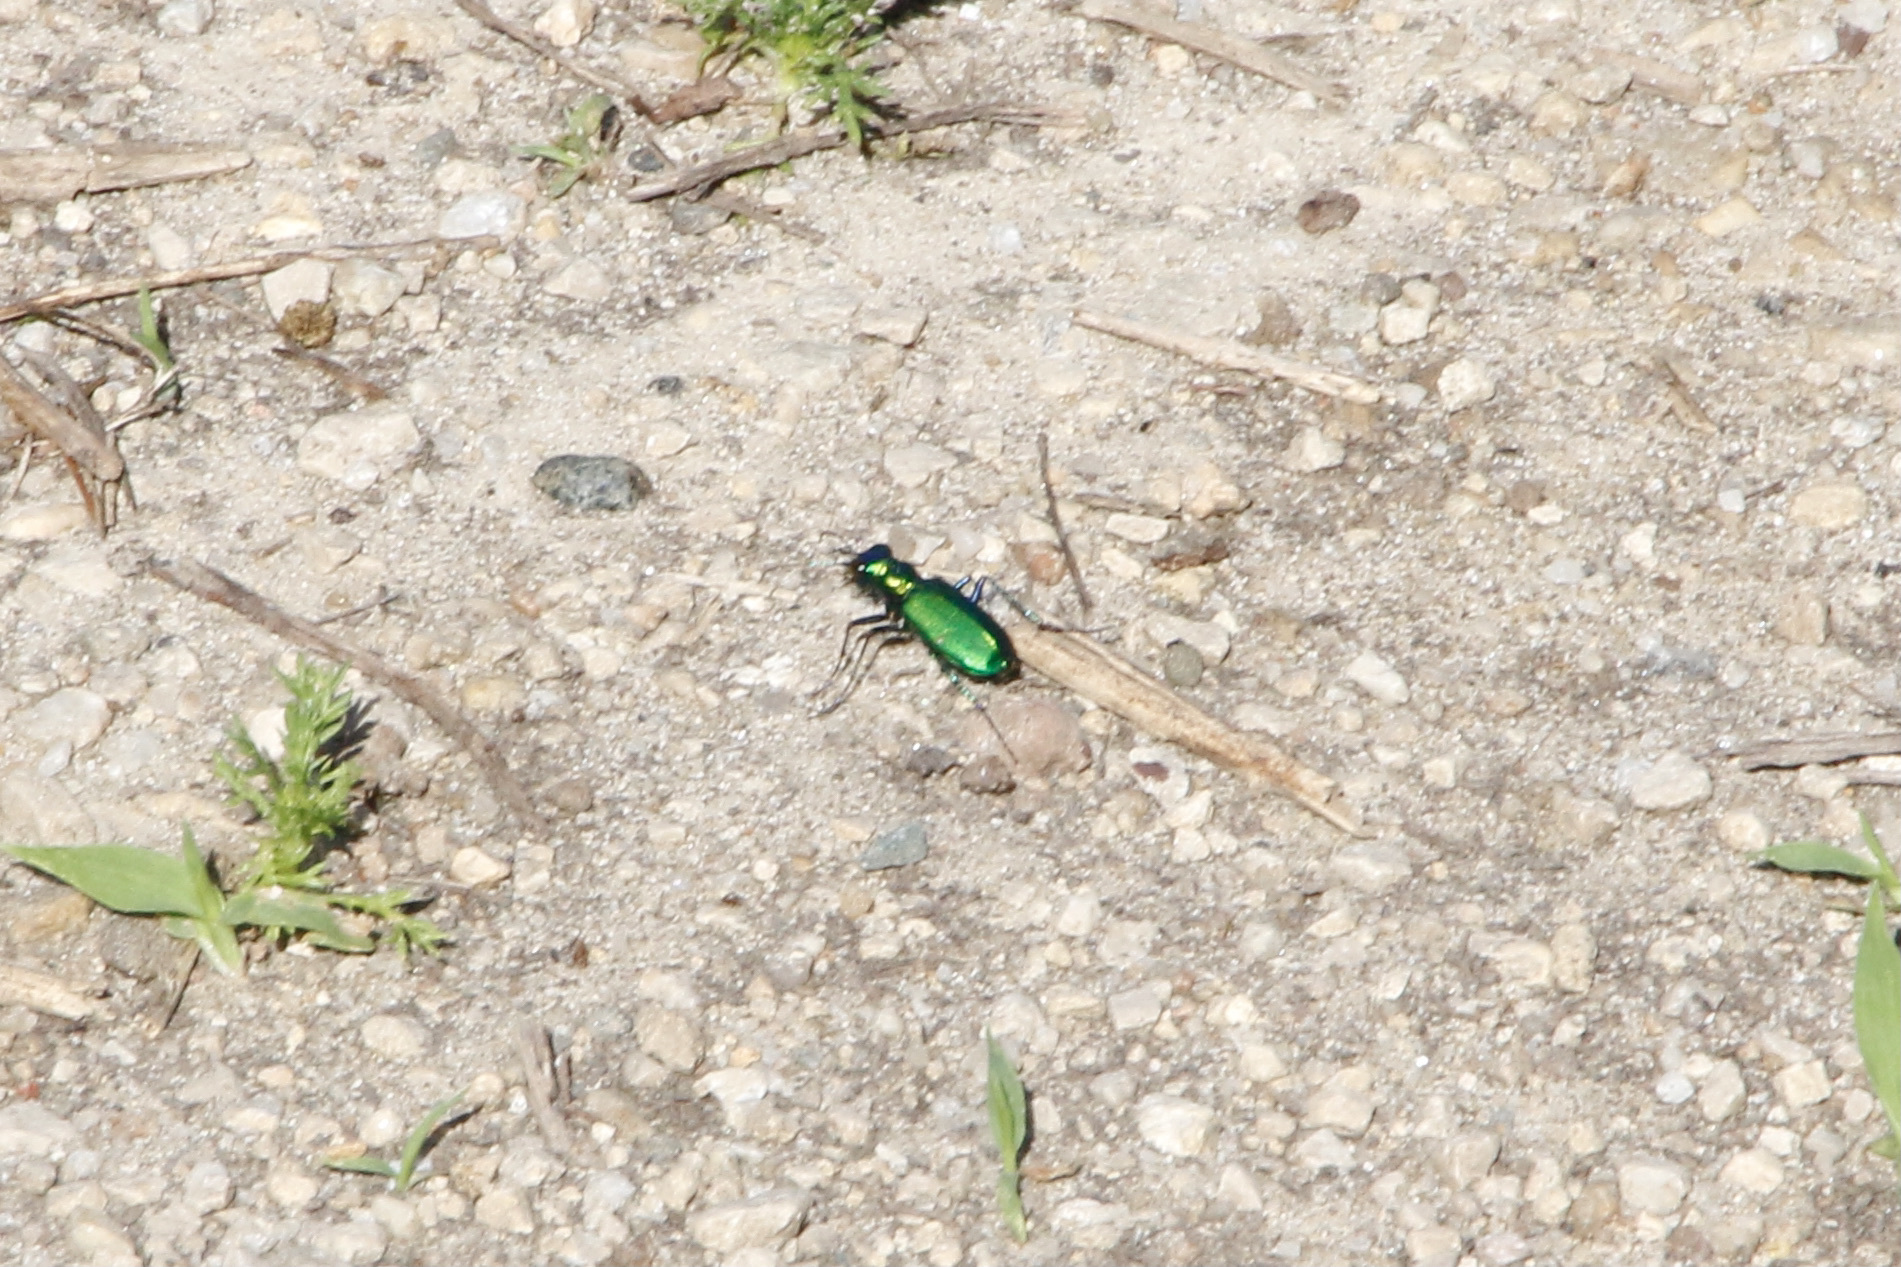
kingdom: Animalia
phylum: Arthropoda
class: Insecta
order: Coleoptera
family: Carabidae
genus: Cicindela
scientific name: Cicindela sexguttata
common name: Six-spotted tiger beetle
